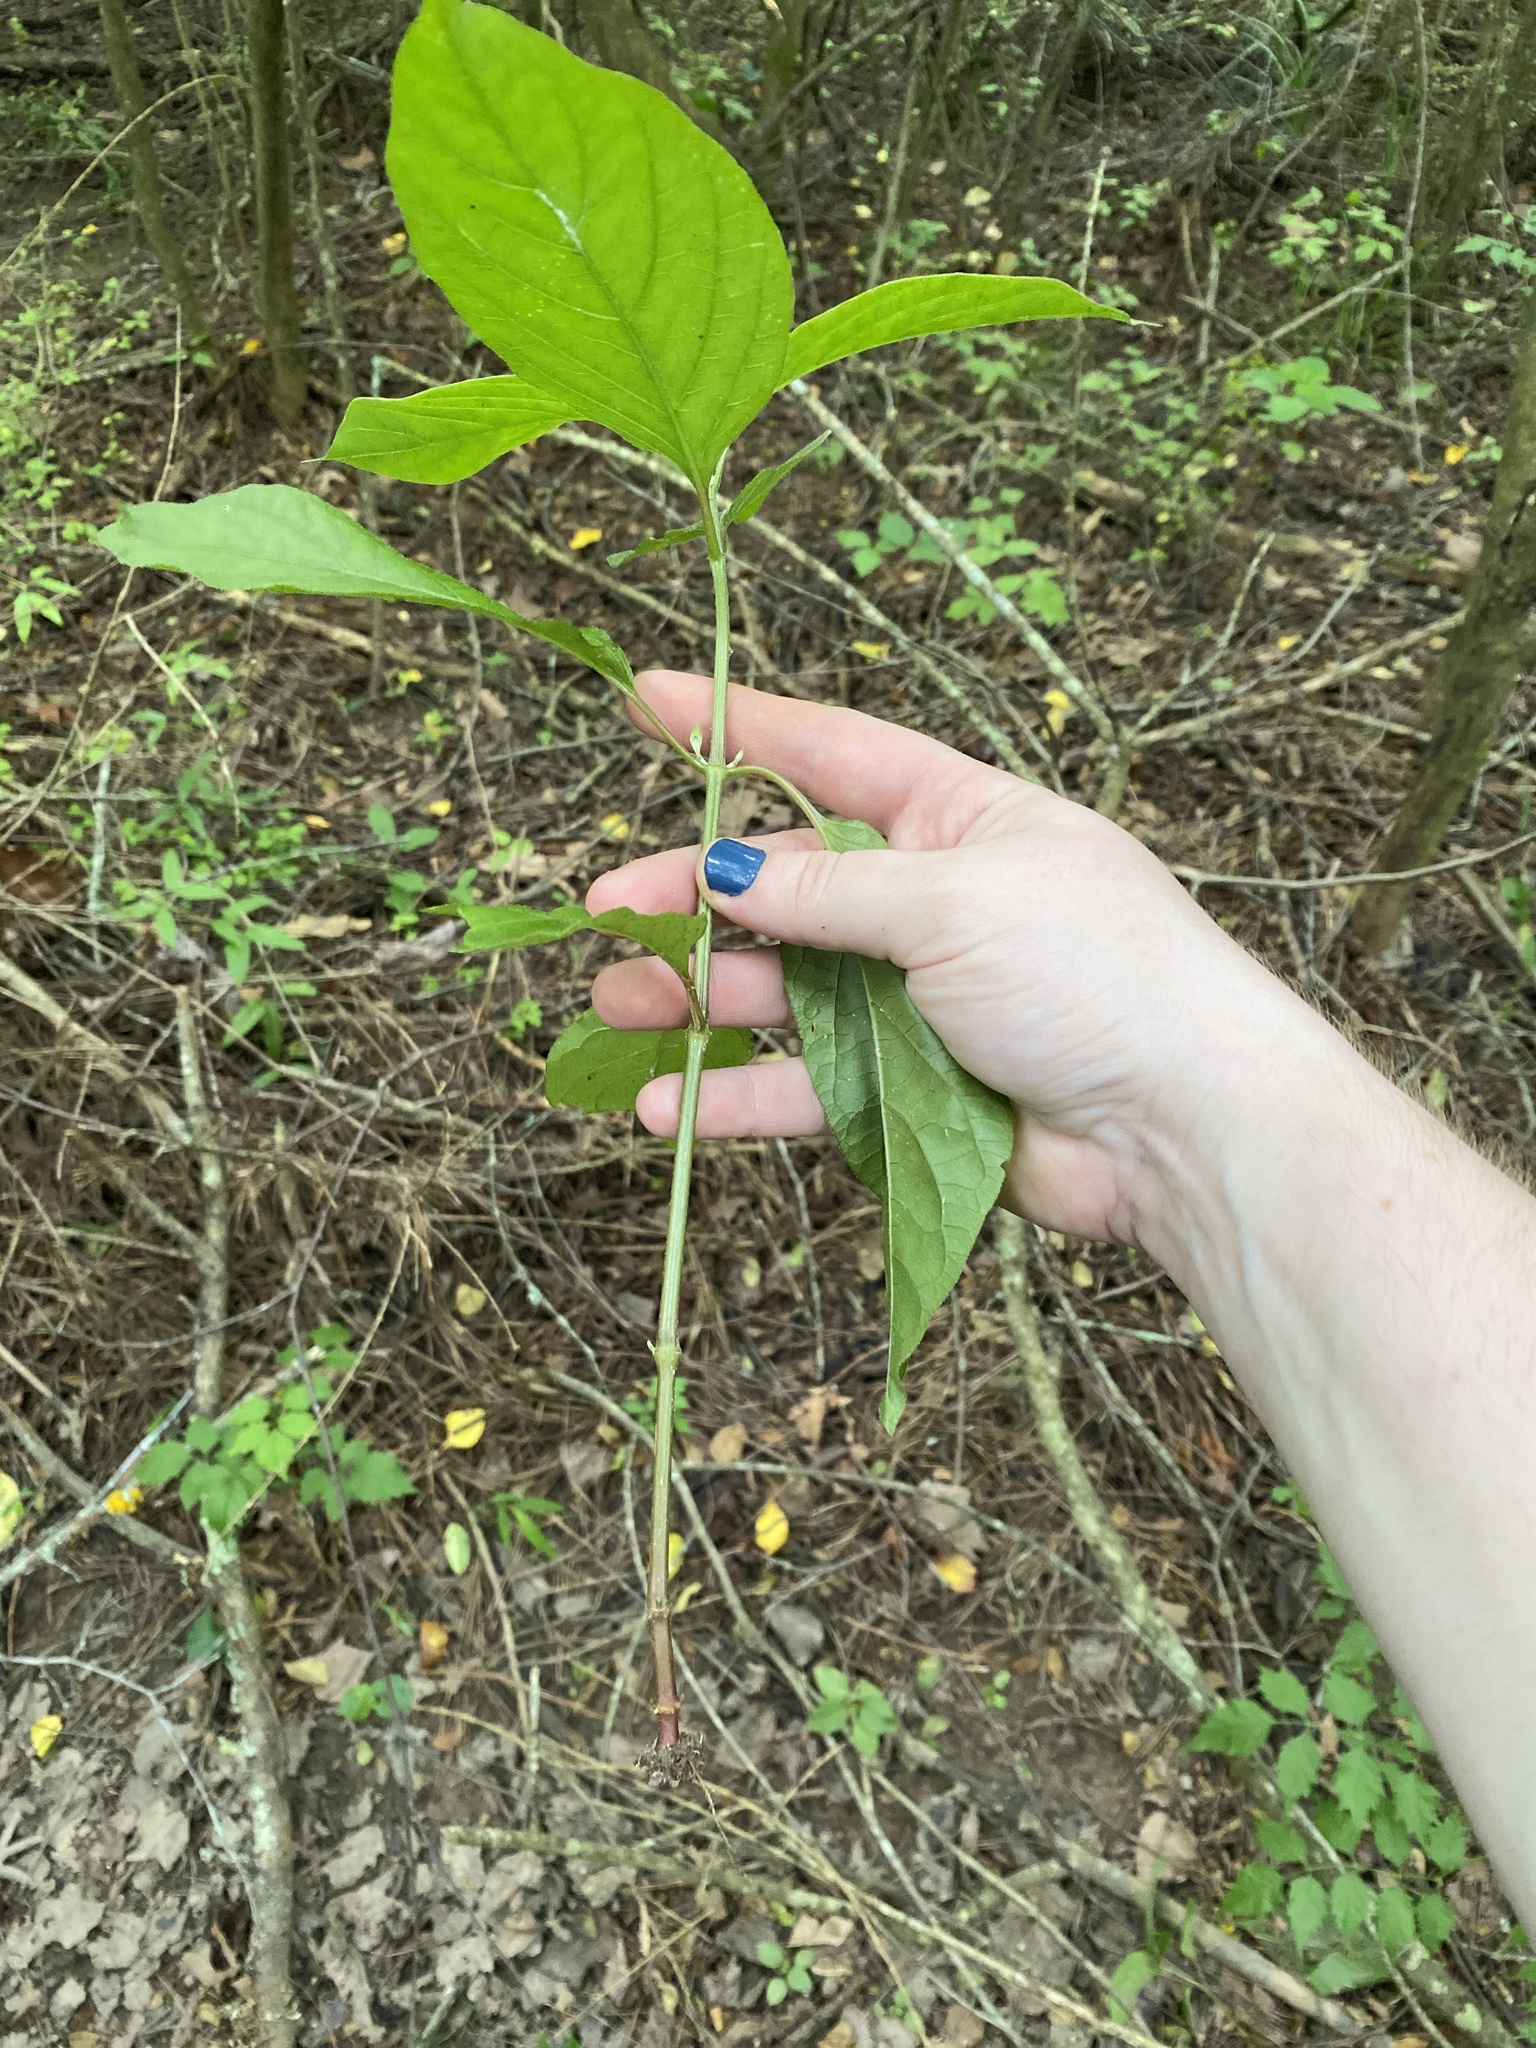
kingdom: Plantae
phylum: Tracheophyta
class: Magnoliopsida
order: Caryophyllales
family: Amaranthaceae
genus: Achyranthes
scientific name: Achyranthes bidentata
